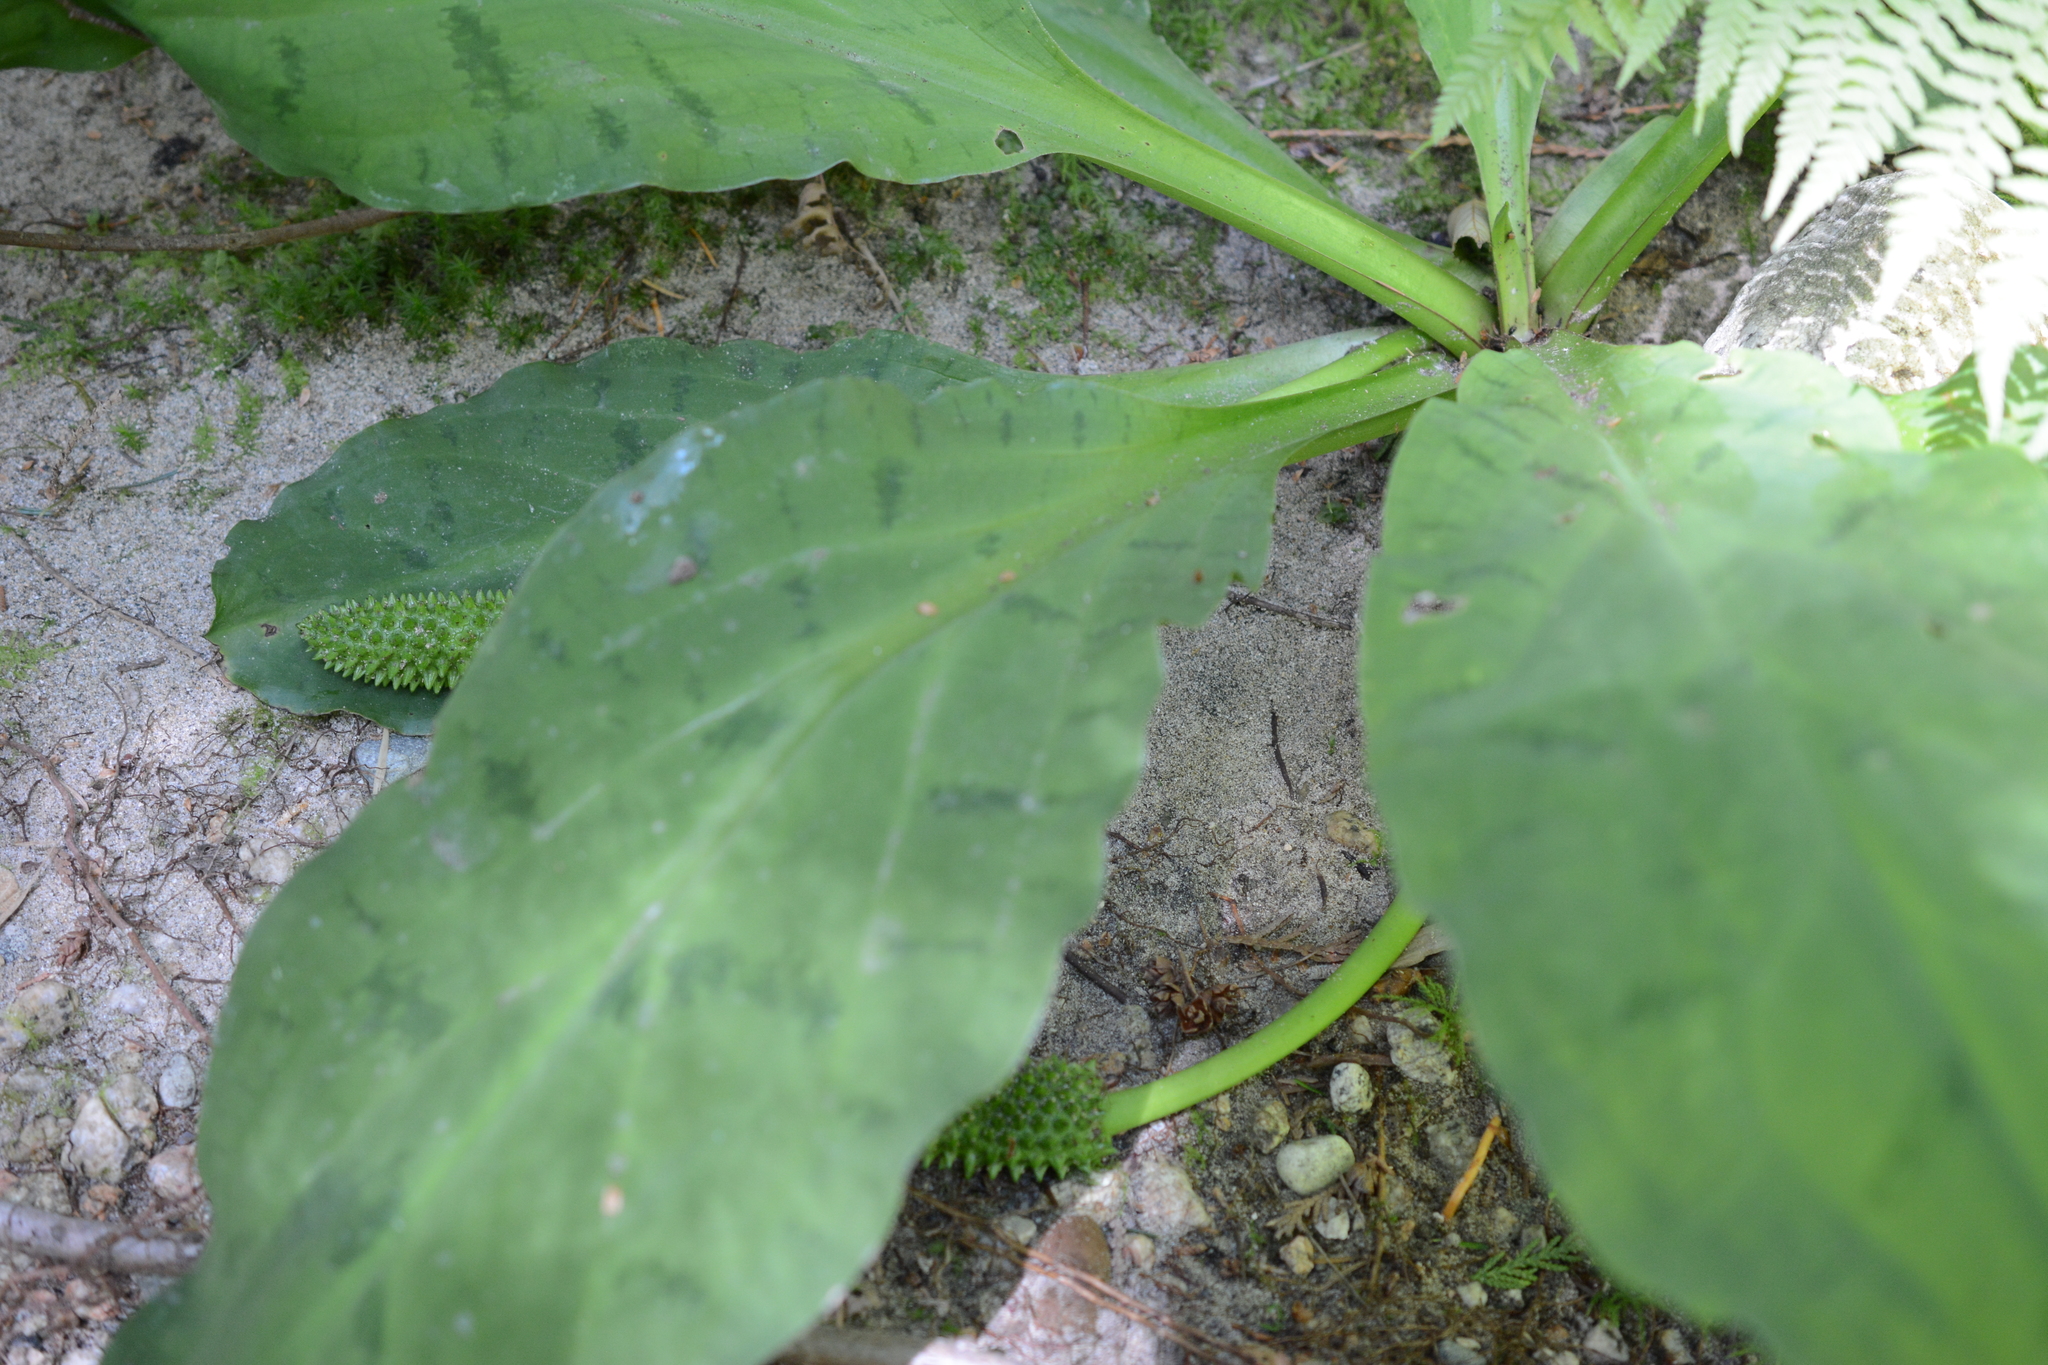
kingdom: Plantae
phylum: Tracheophyta
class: Liliopsida
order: Alismatales
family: Araceae
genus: Lysichiton
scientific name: Lysichiton americanus
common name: American skunk cabbage
